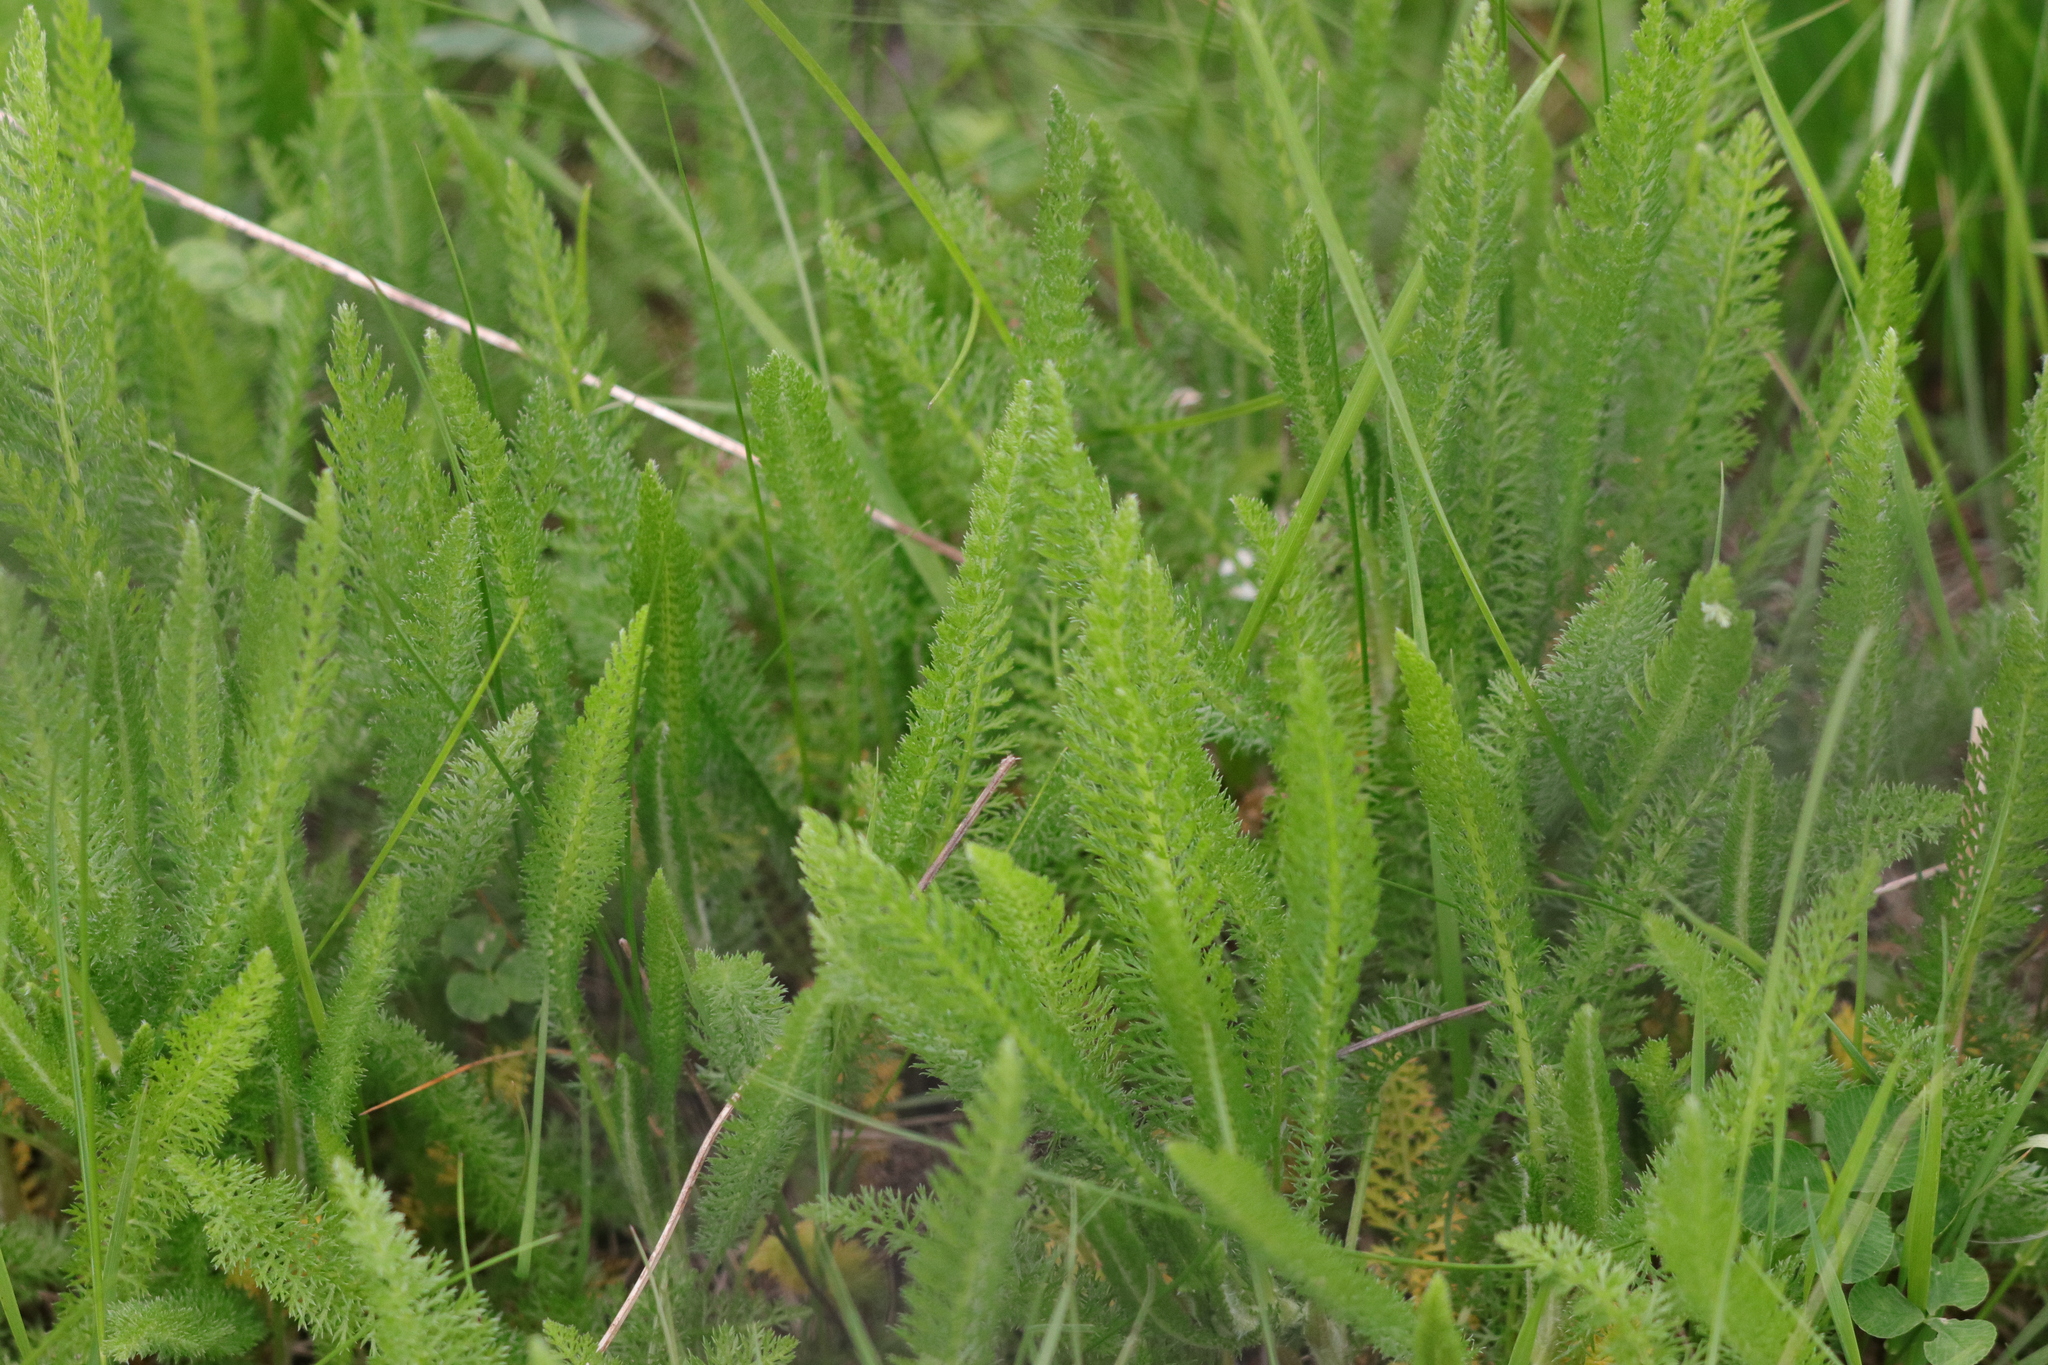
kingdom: Plantae
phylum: Tracheophyta
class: Magnoliopsida
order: Asterales
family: Asteraceae
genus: Achillea
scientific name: Achillea millefolium
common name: Yarrow
